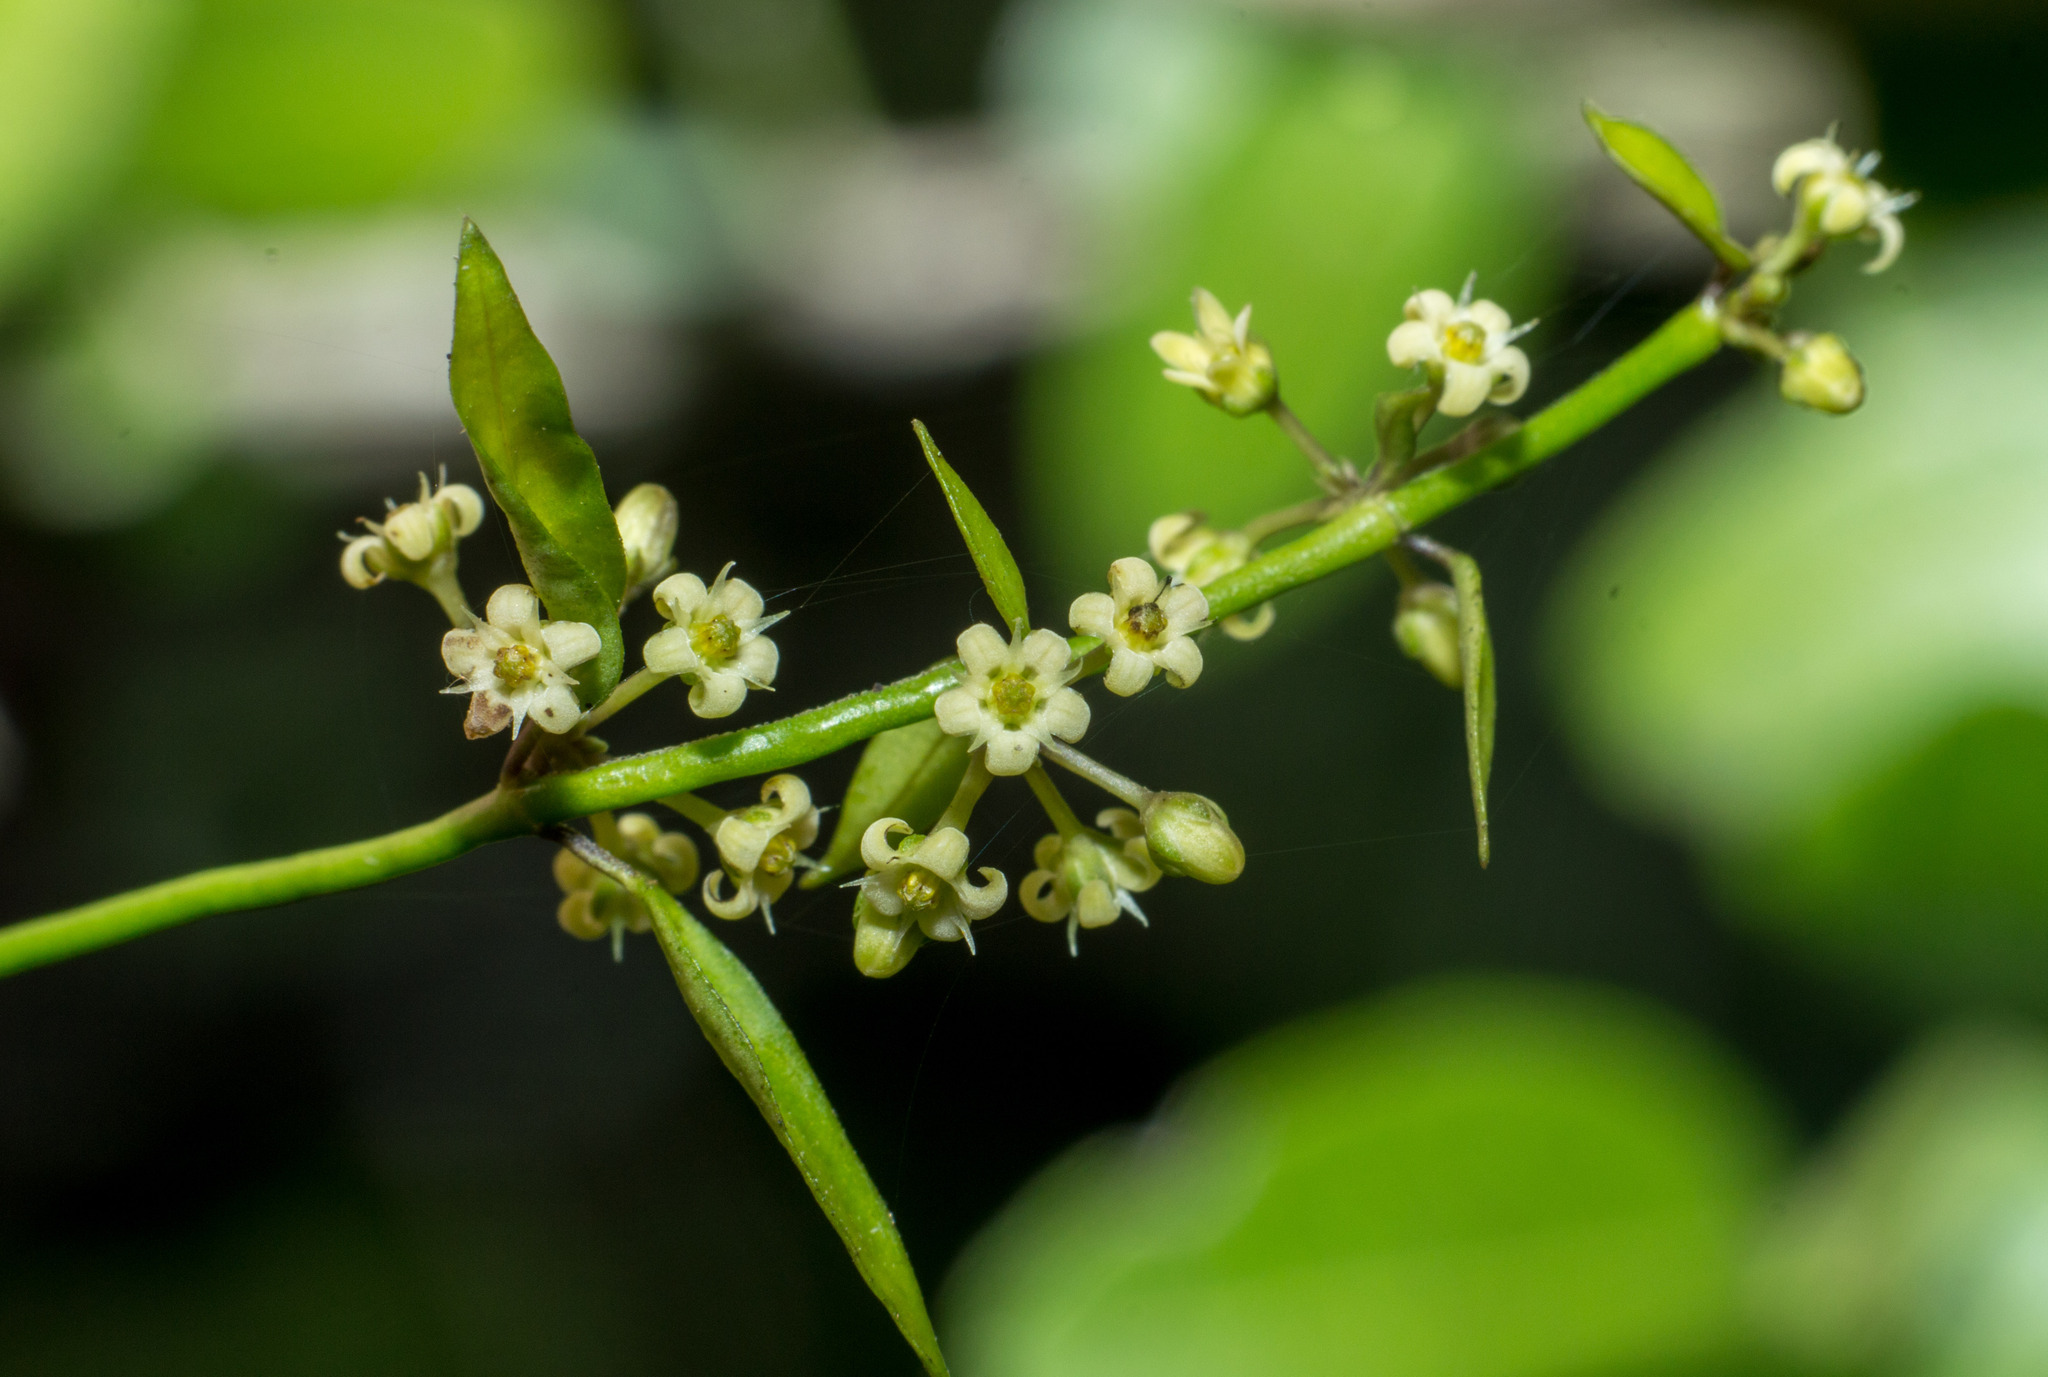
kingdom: Plantae
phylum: Tracheophyta
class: Magnoliopsida
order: Gentianales
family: Apocynaceae
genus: Orthosia
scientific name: Orthosia virgata
